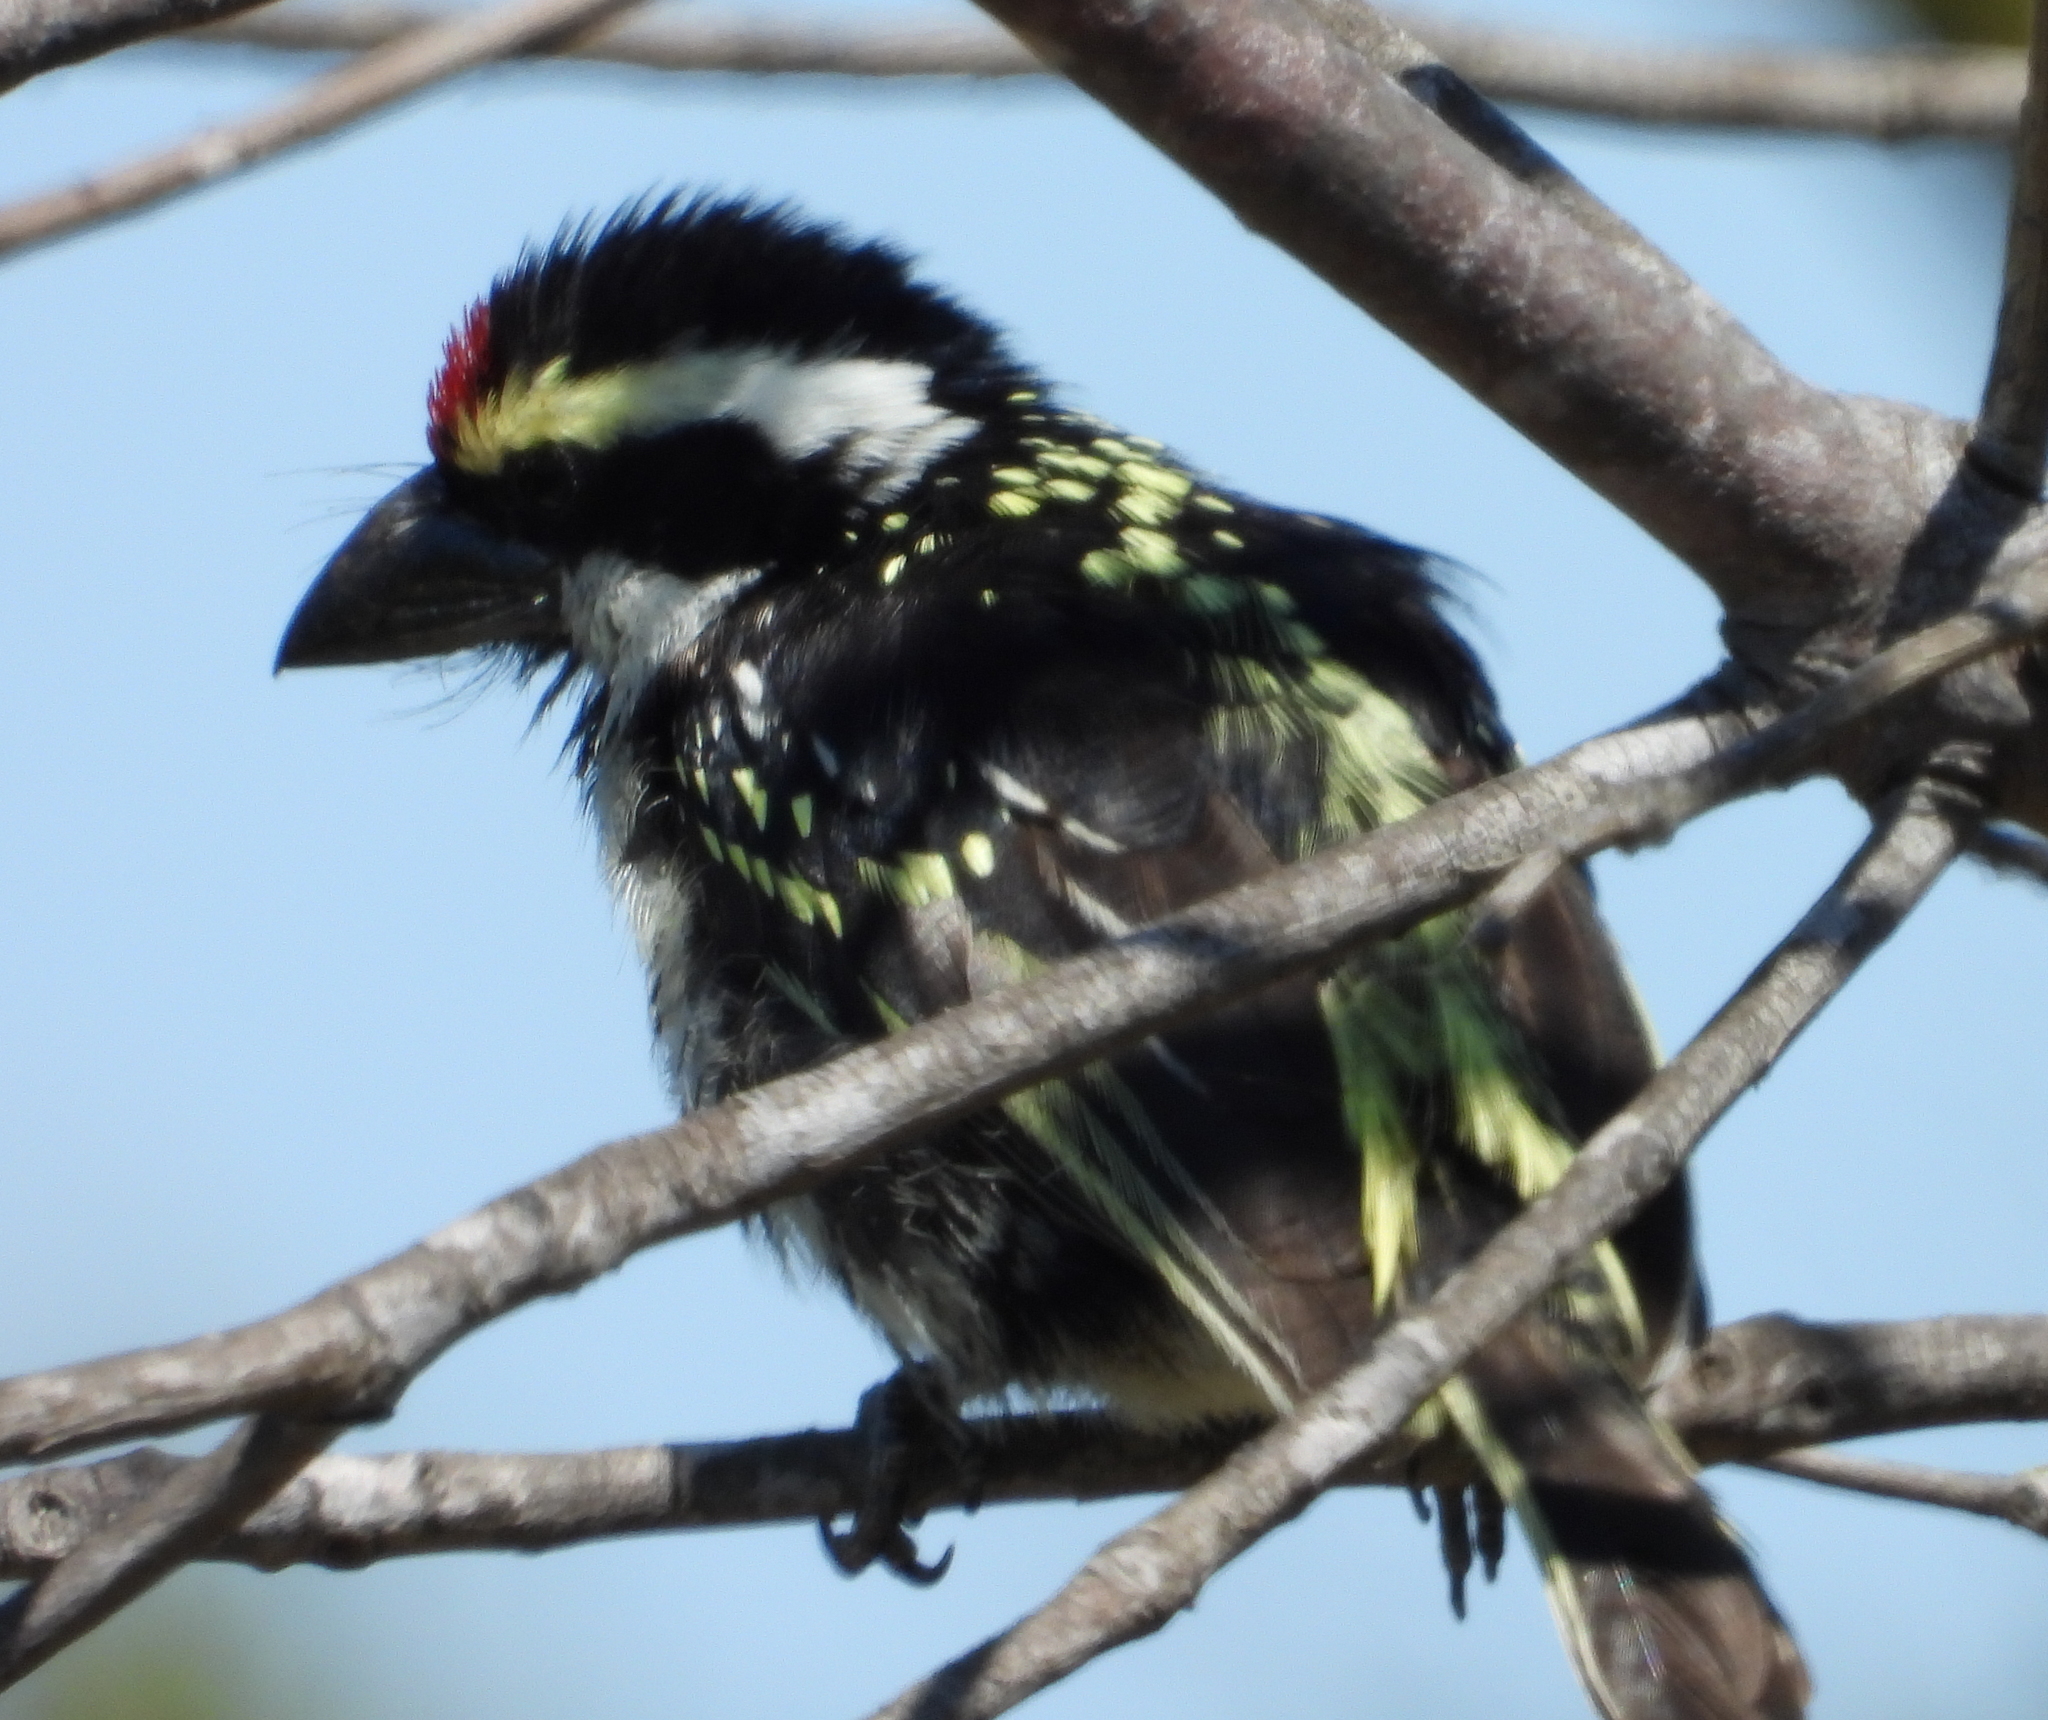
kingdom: Animalia
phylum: Chordata
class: Aves
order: Piciformes
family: Lybiidae
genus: Tricholaema
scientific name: Tricholaema leucomelas
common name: Acacia pied barbet
